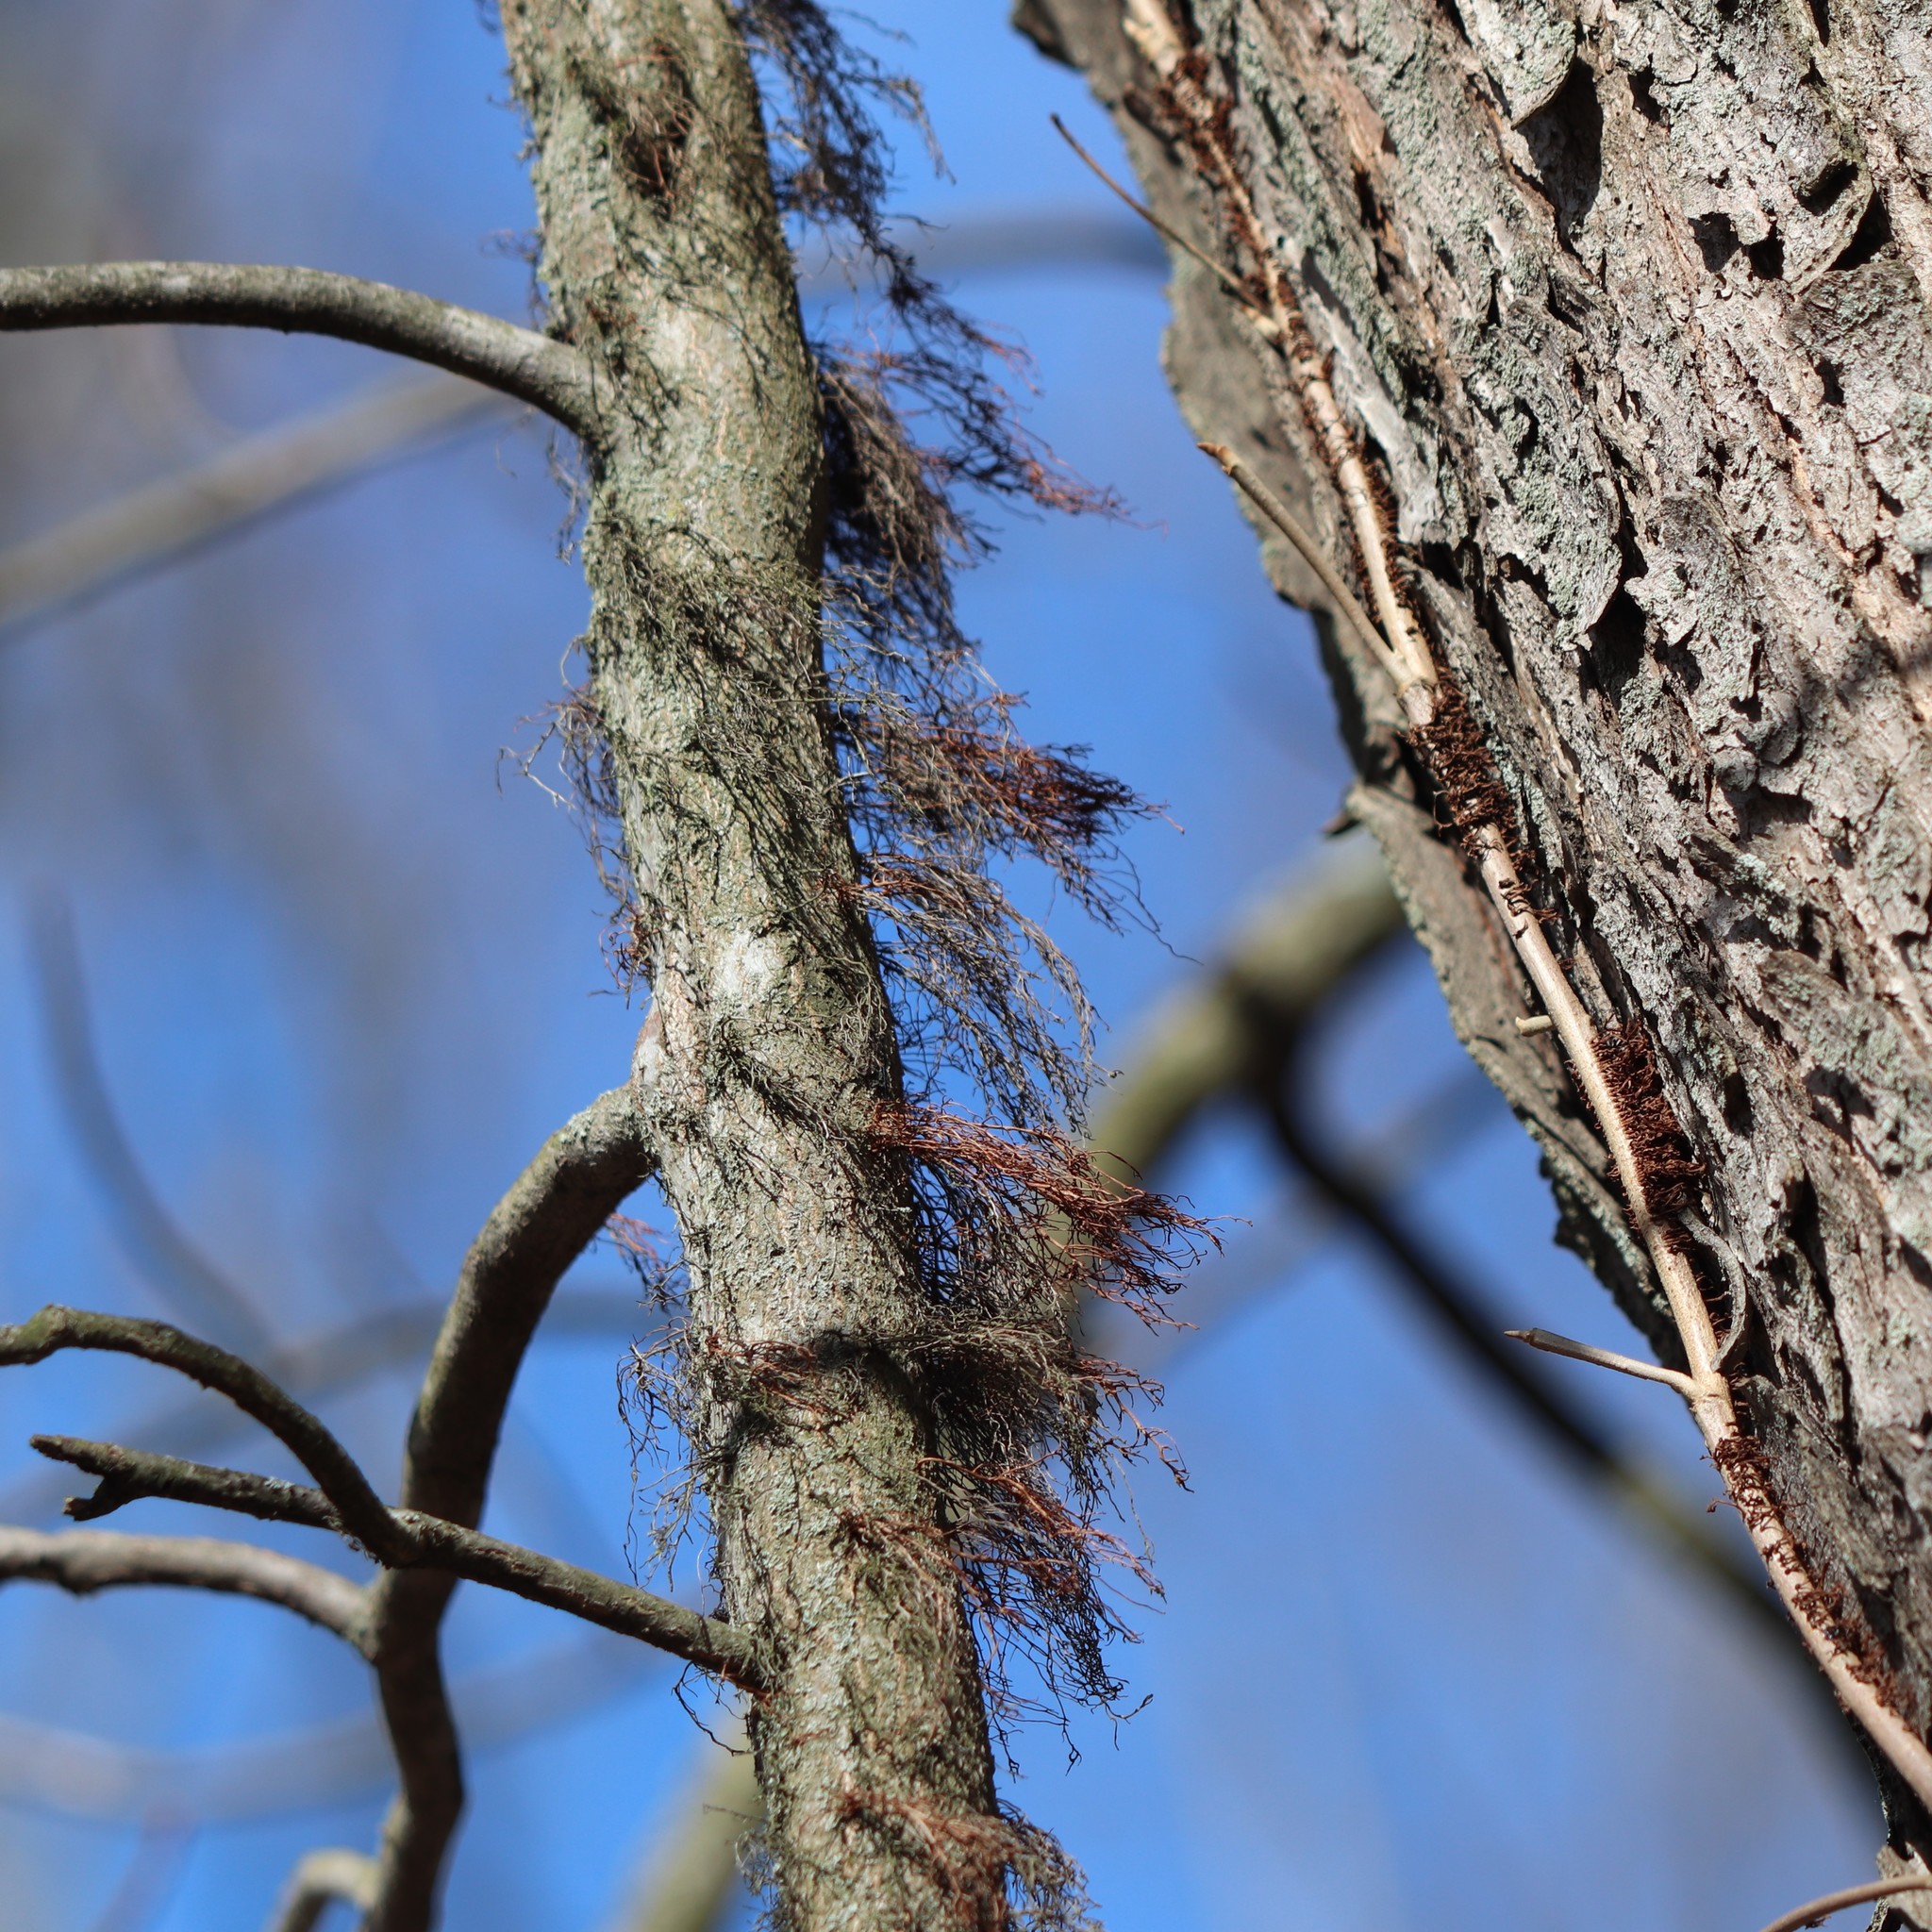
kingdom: Plantae
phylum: Tracheophyta
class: Magnoliopsida
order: Sapindales
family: Anacardiaceae
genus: Toxicodendron
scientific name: Toxicodendron radicans
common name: Poison ivy
